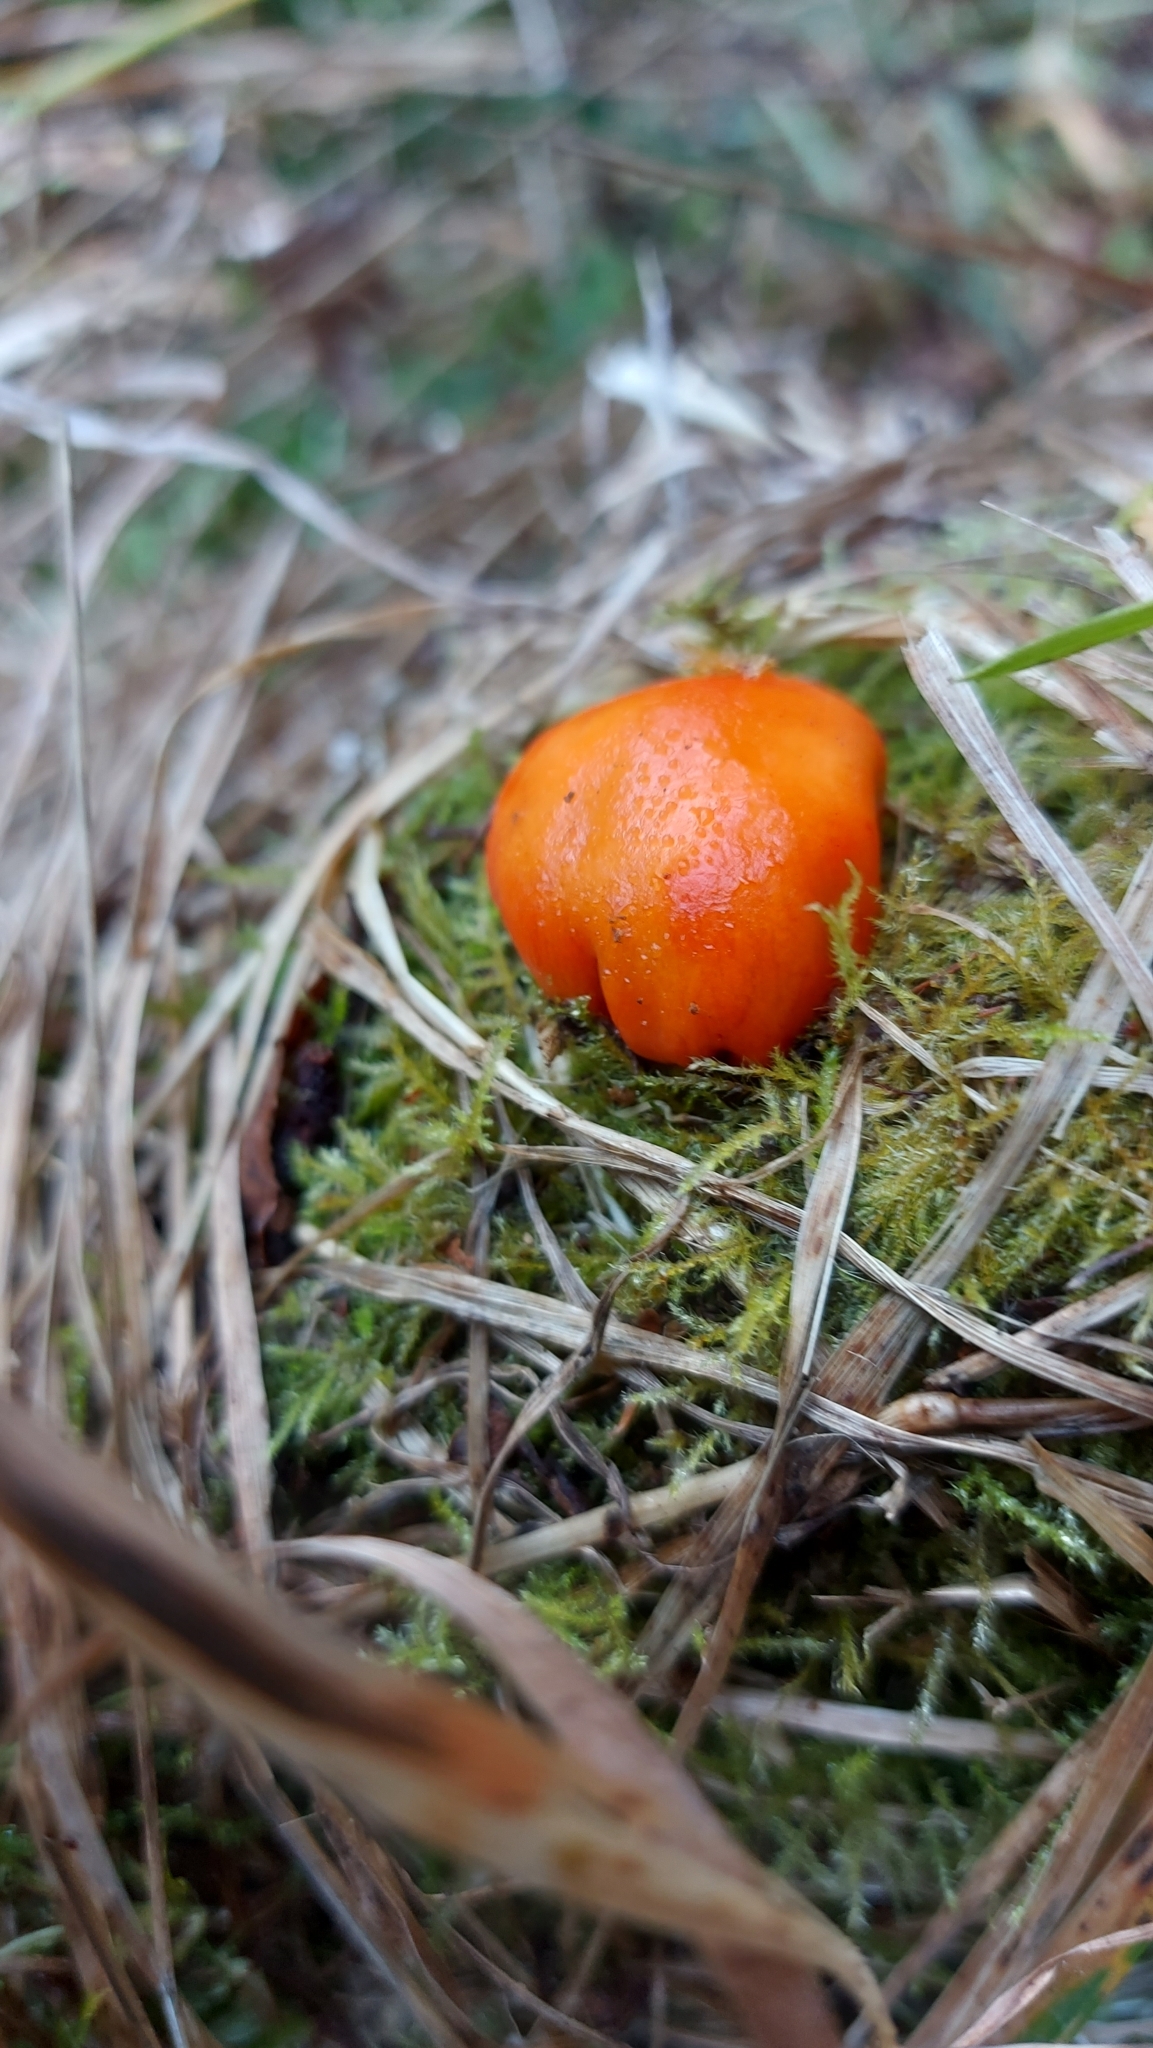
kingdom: Fungi
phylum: Basidiomycota
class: Agaricomycetes
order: Agaricales
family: Strophariaceae
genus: Leratiomyces
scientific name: Leratiomyces erythrocephalus
